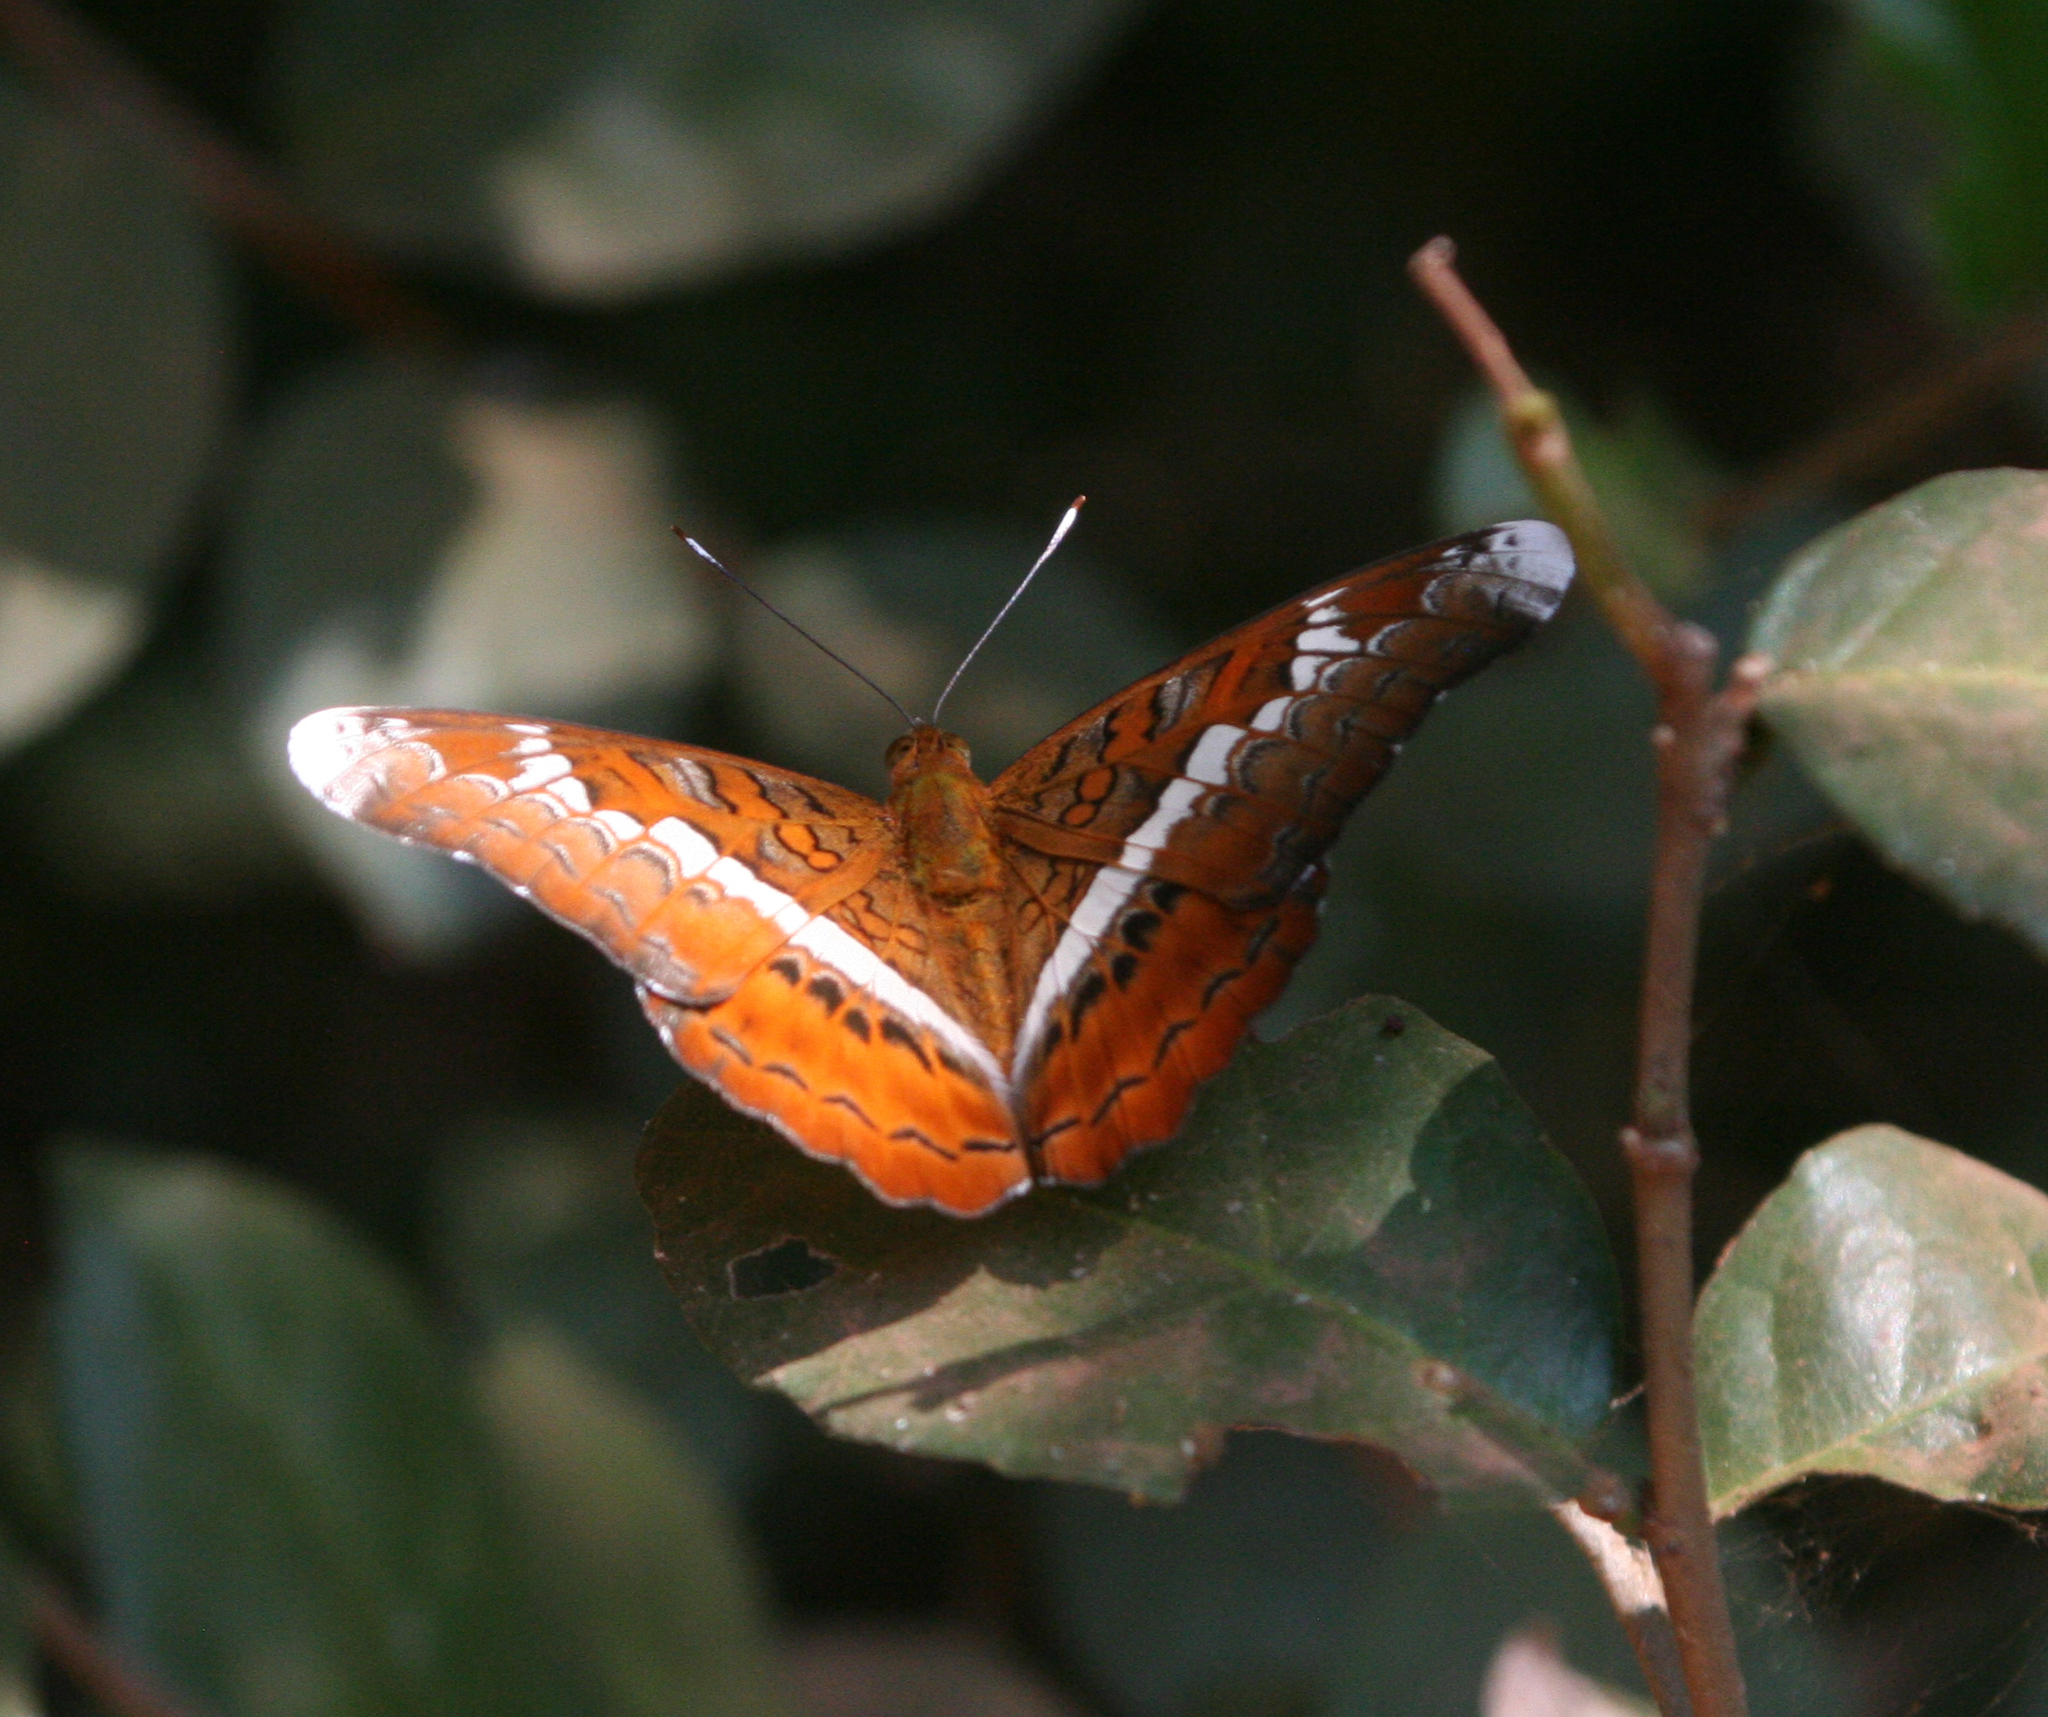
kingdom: Animalia
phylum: Arthropoda
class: Insecta
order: Lepidoptera
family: Nymphalidae
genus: Lebadea
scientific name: Lebadea martha
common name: Knight
